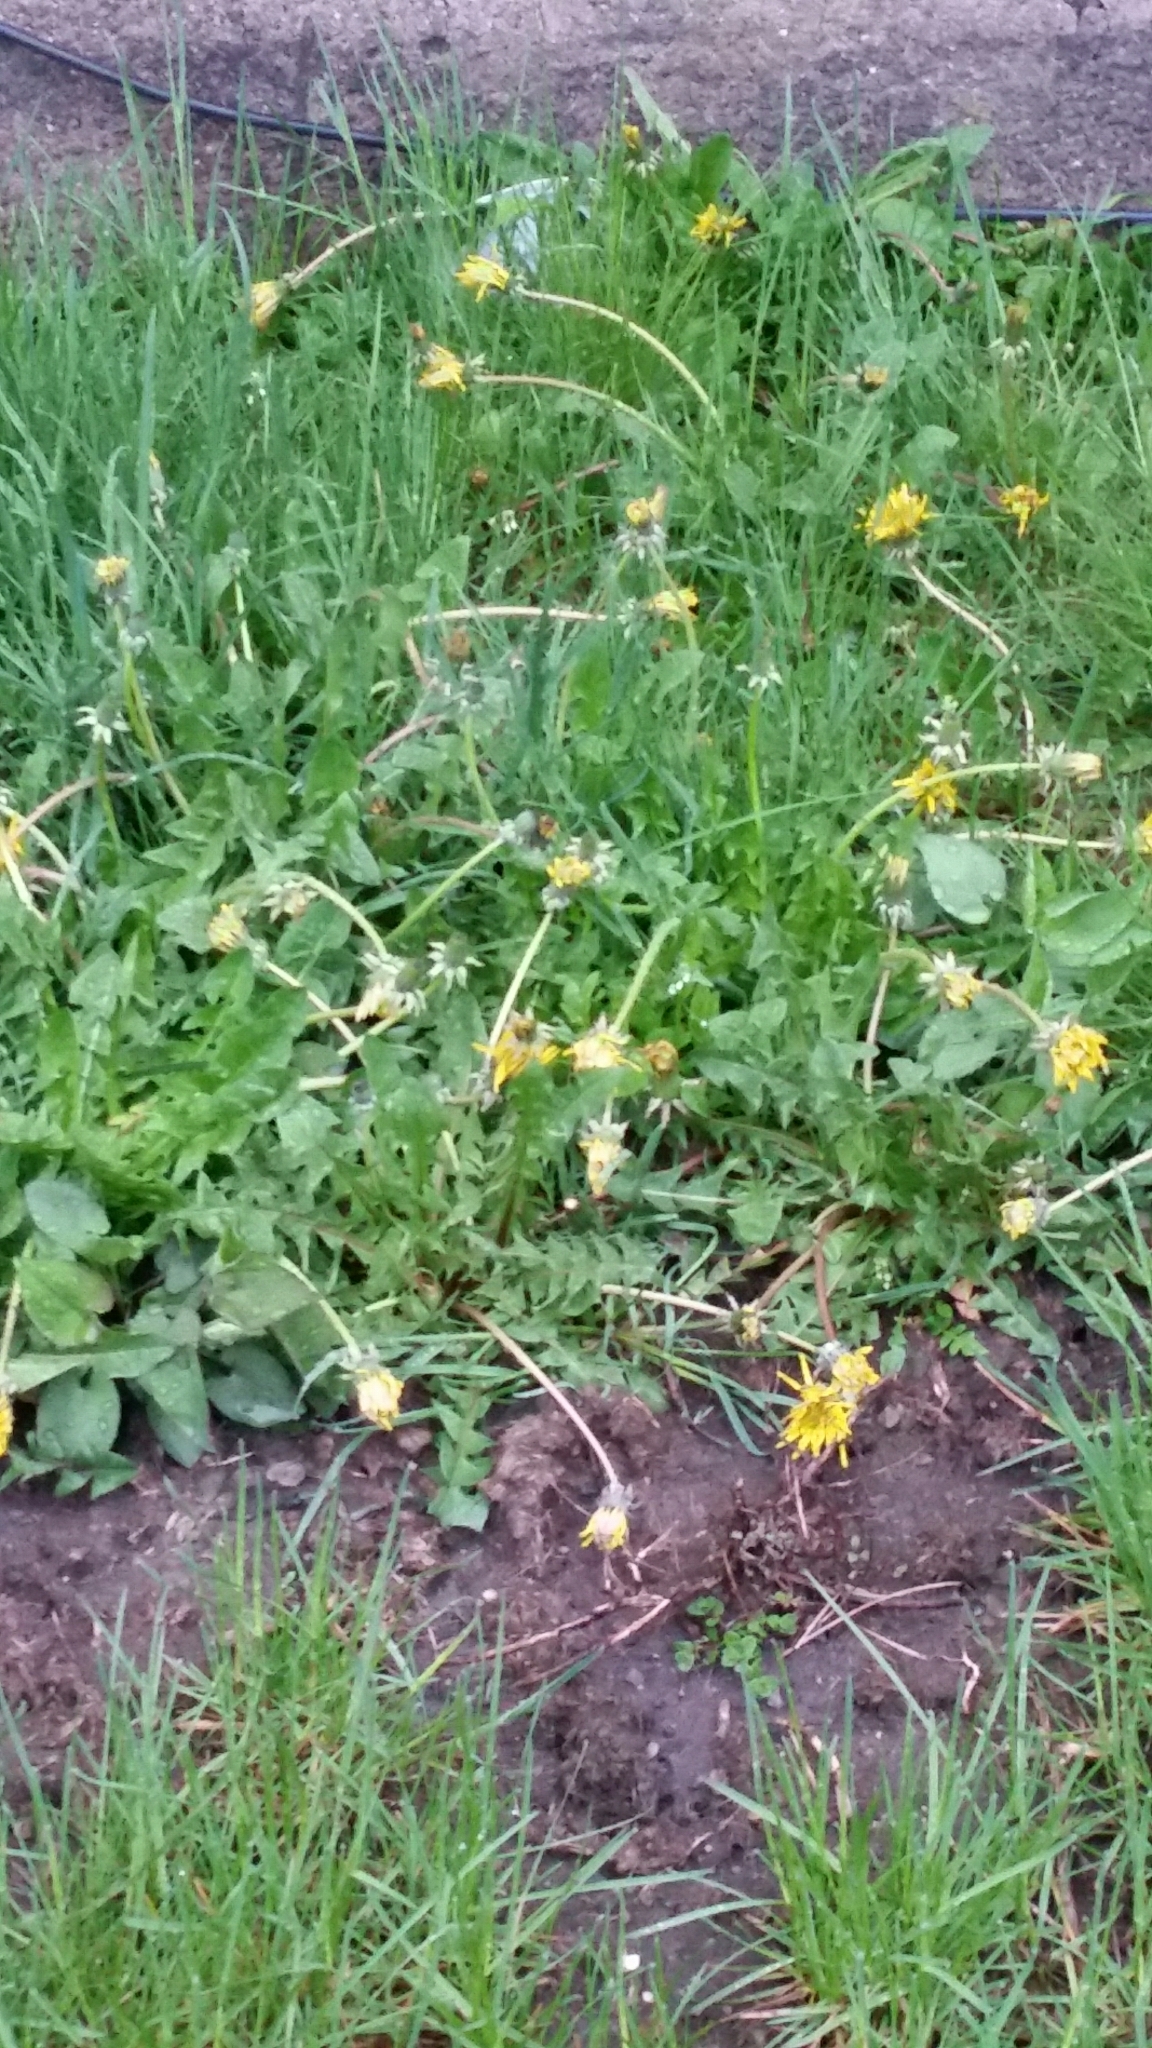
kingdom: Plantae
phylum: Tracheophyta
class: Magnoliopsida
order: Asterales
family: Asteraceae
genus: Taraxacum
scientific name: Taraxacum officinale
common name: Common dandelion
